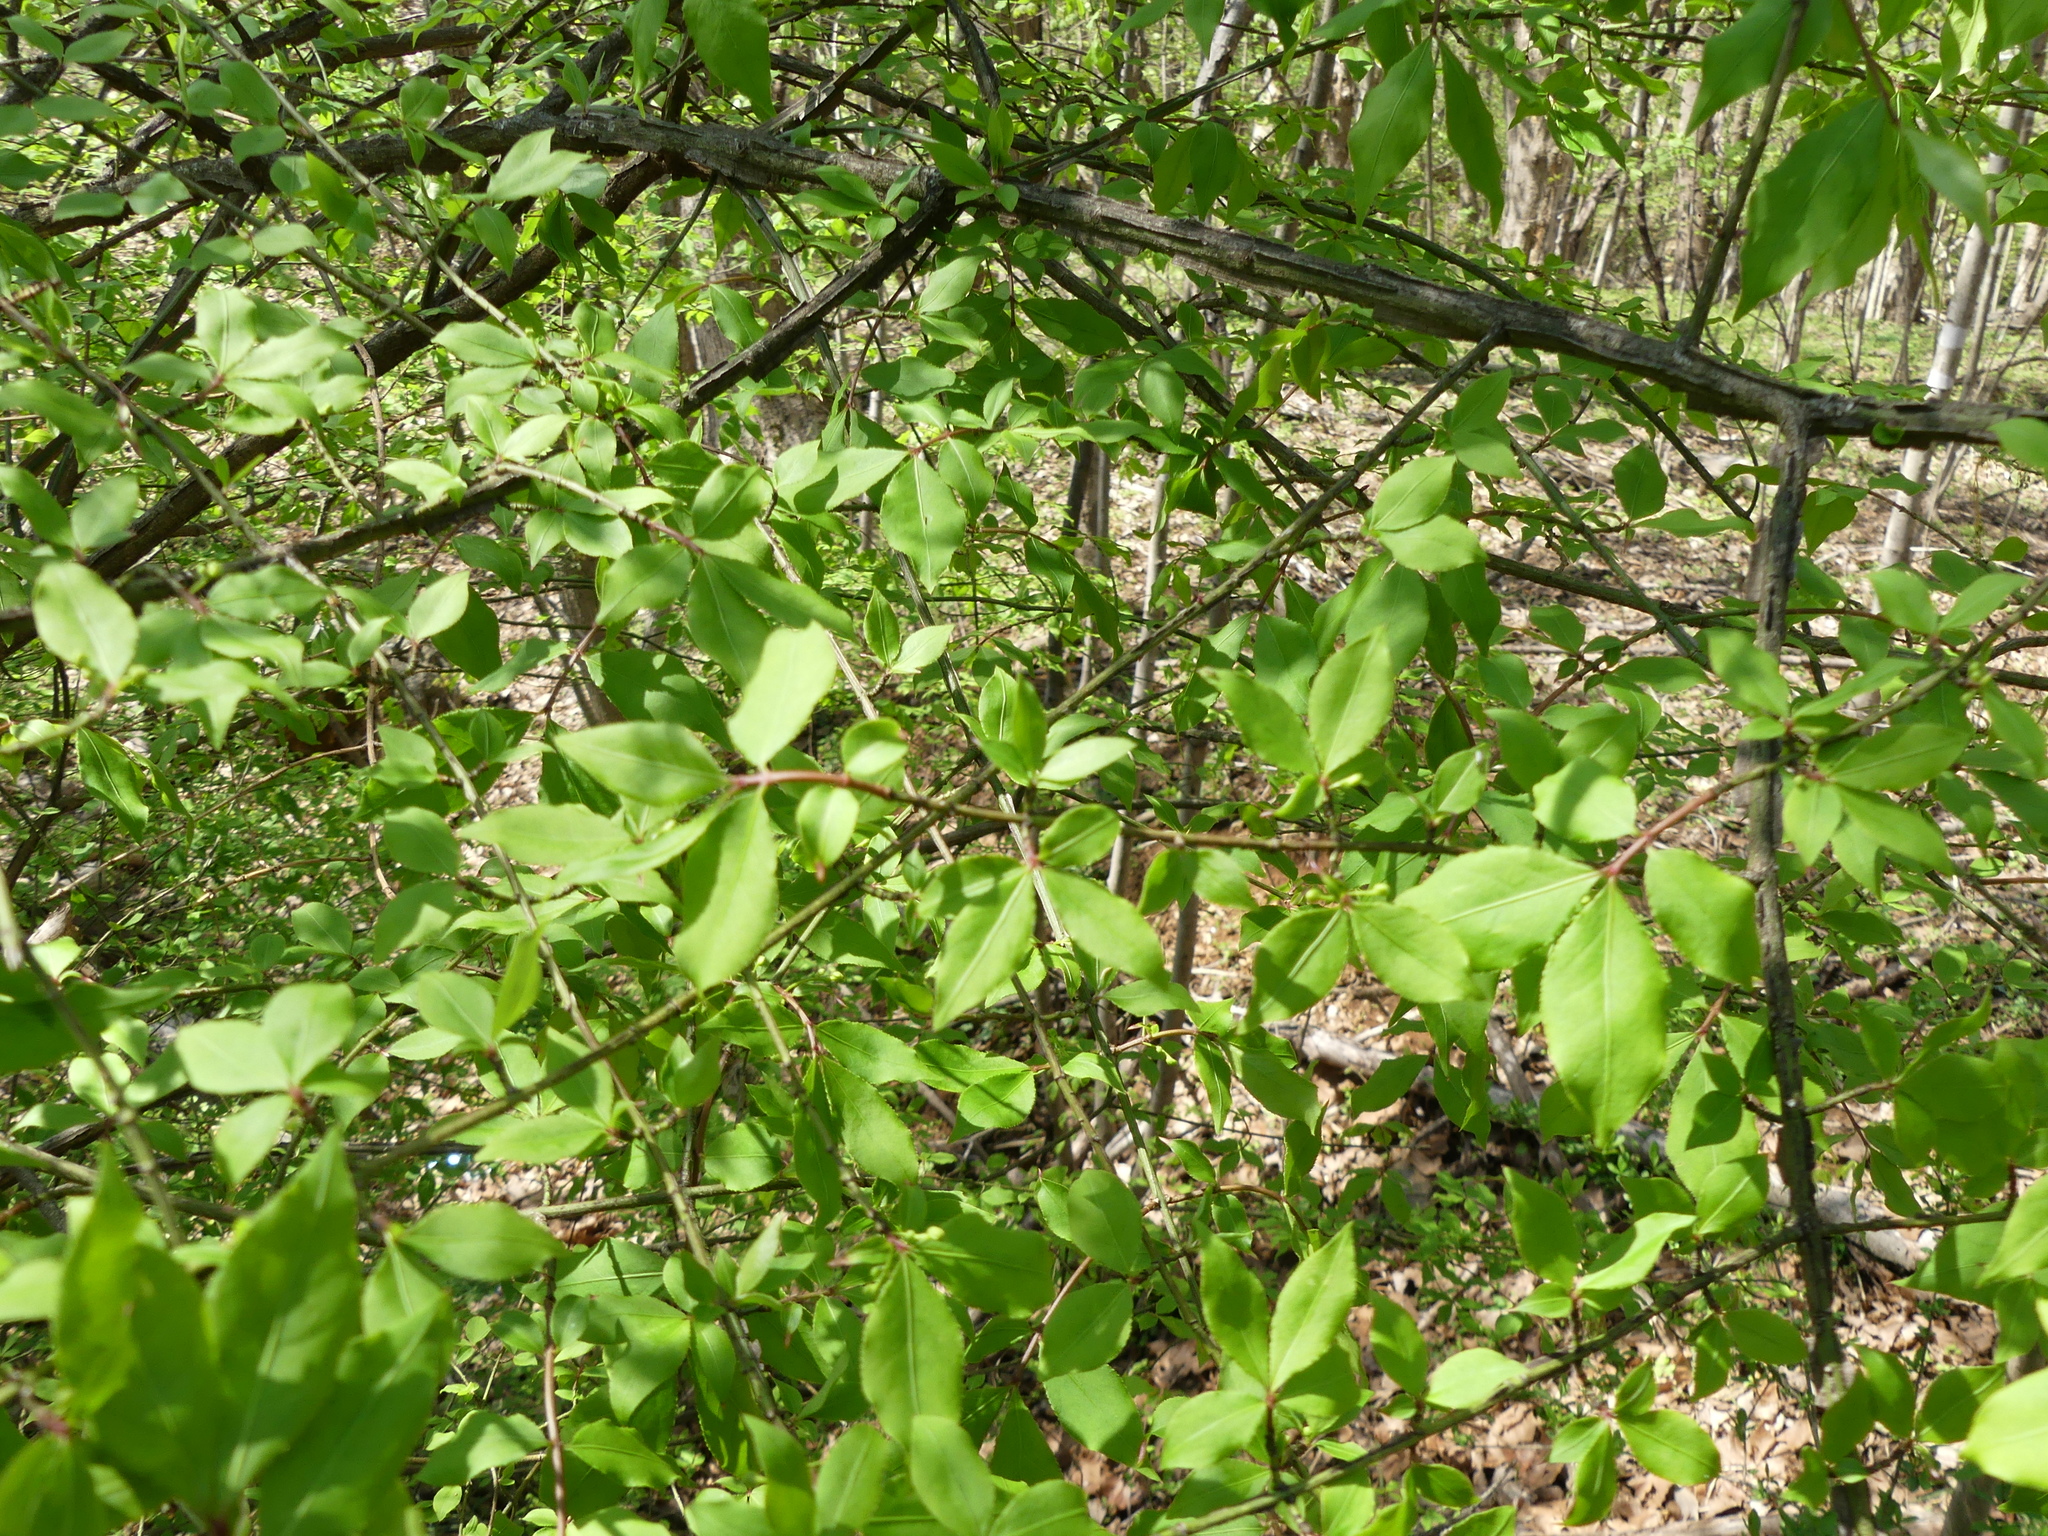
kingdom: Plantae
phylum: Tracheophyta
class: Magnoliopsida
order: Celastrales
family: Celastraceae
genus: Euonymus
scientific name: Euonymus alatus
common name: Winged euonymus
